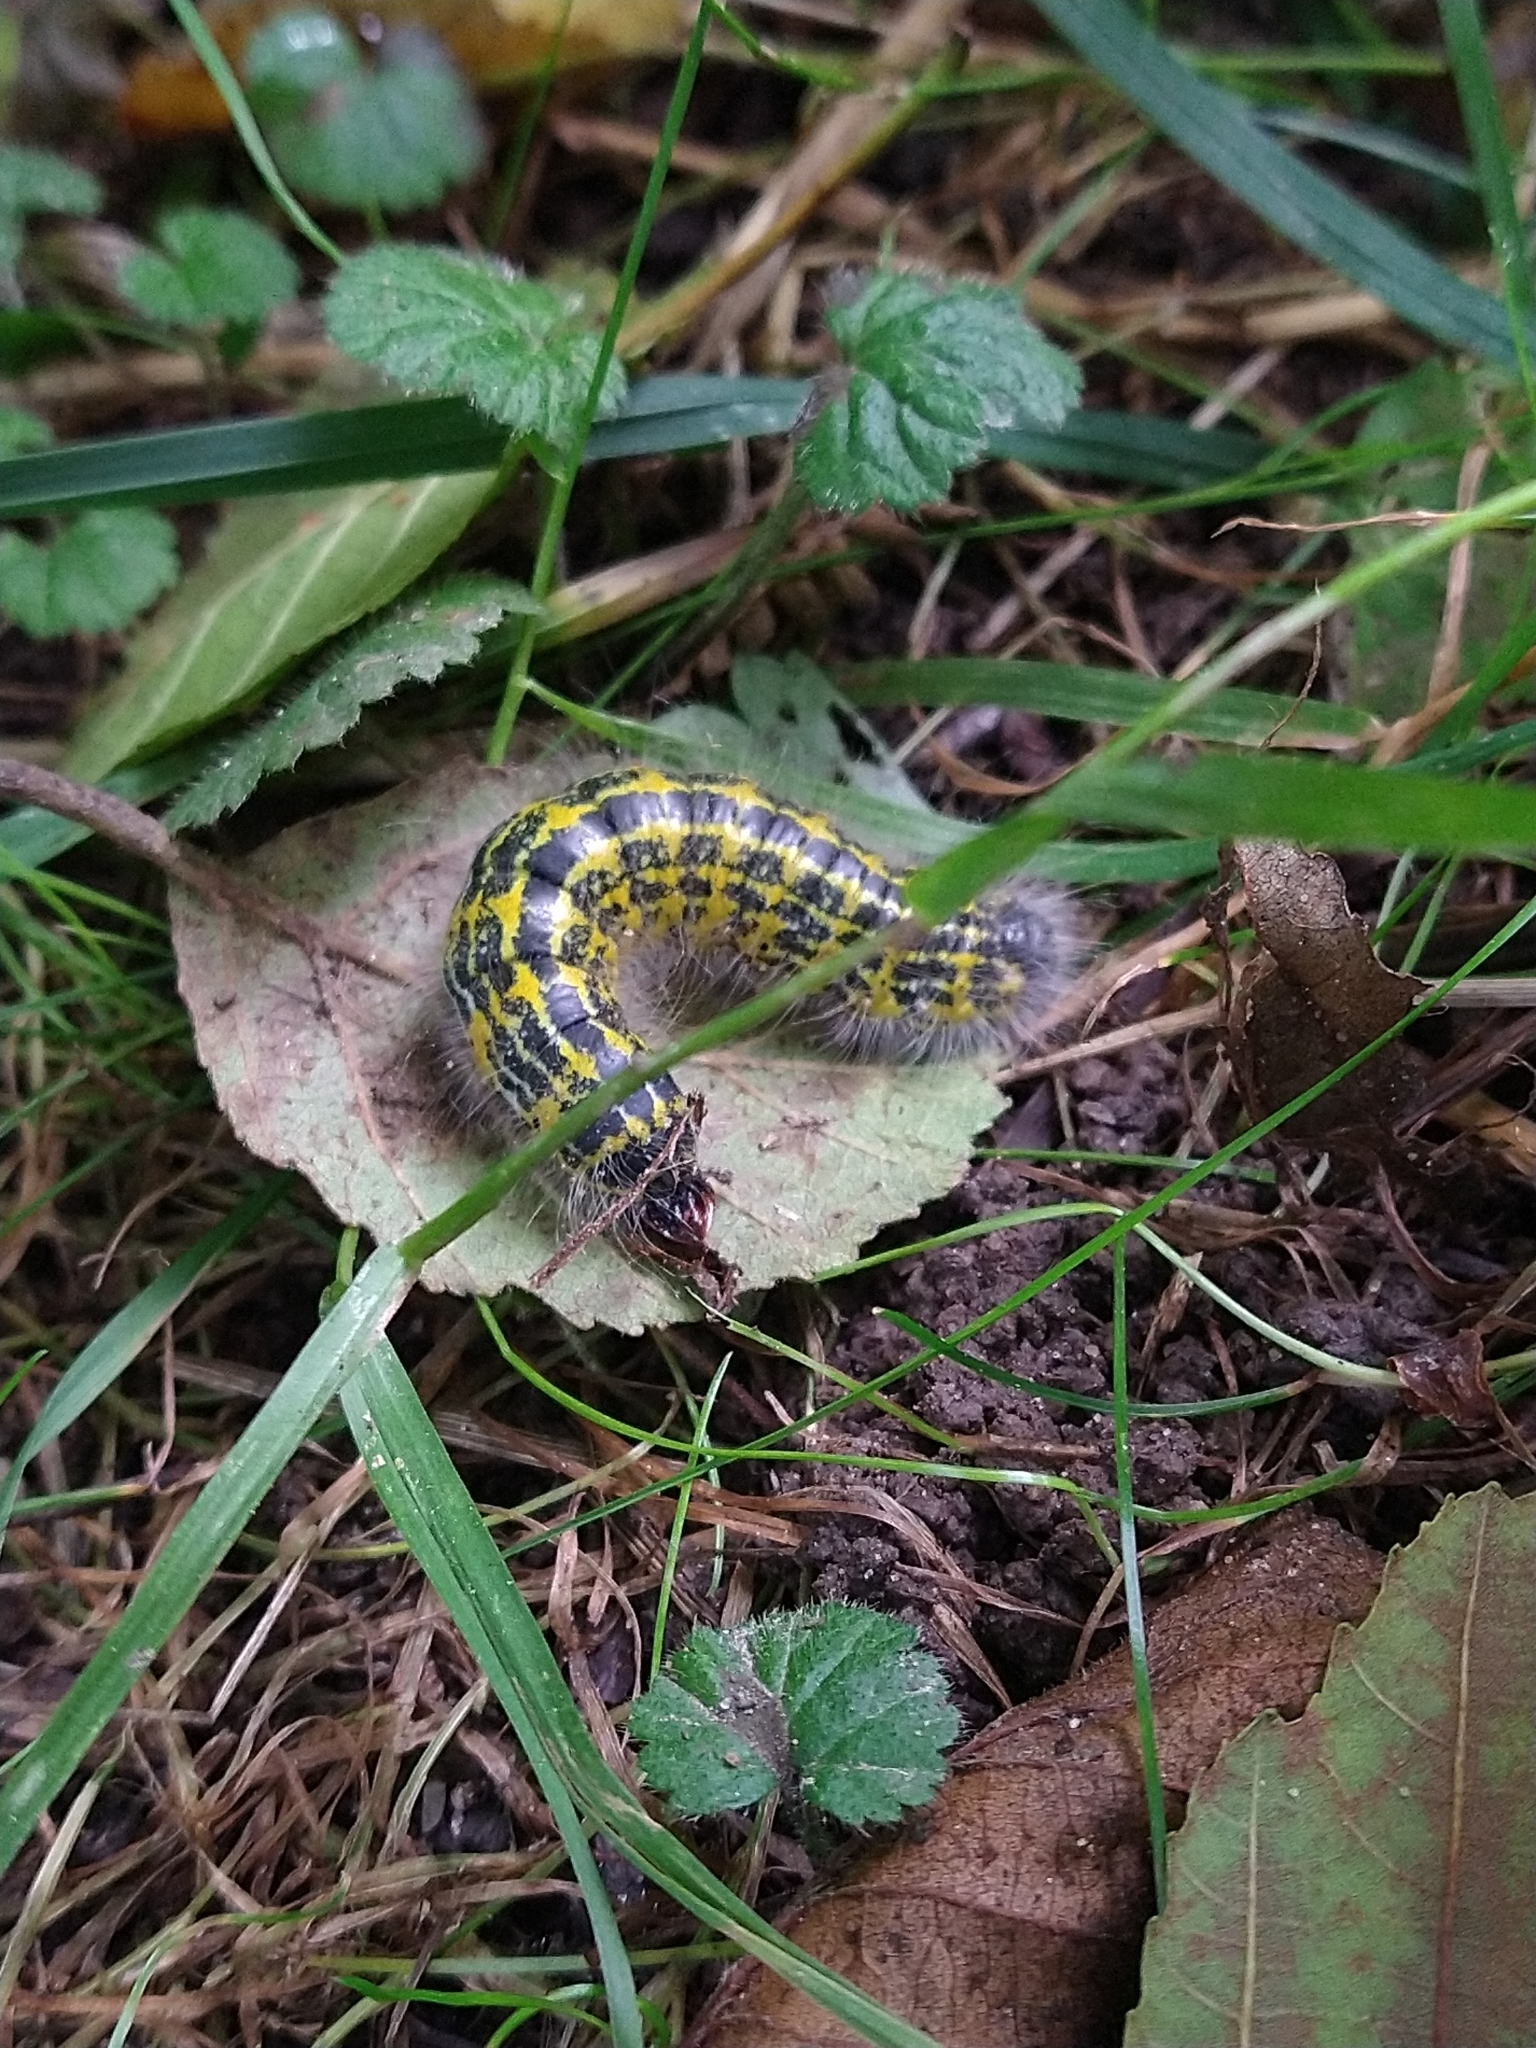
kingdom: Animalia
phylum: Arthropoda
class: Insecta
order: Lepidoptera
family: Notodontidae
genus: Phalera
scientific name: Phalera bucephala
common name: Buff-tip
